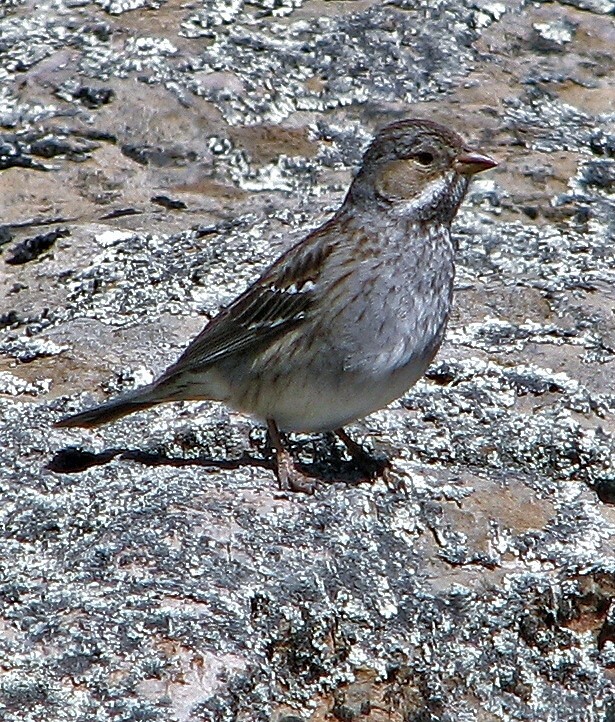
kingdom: Animalia
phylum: Chordata
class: Aves
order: Passeriformes
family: Thraupidae
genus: Rhopospina
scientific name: Rhopospina fruticeti
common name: Mourning sierra finch
